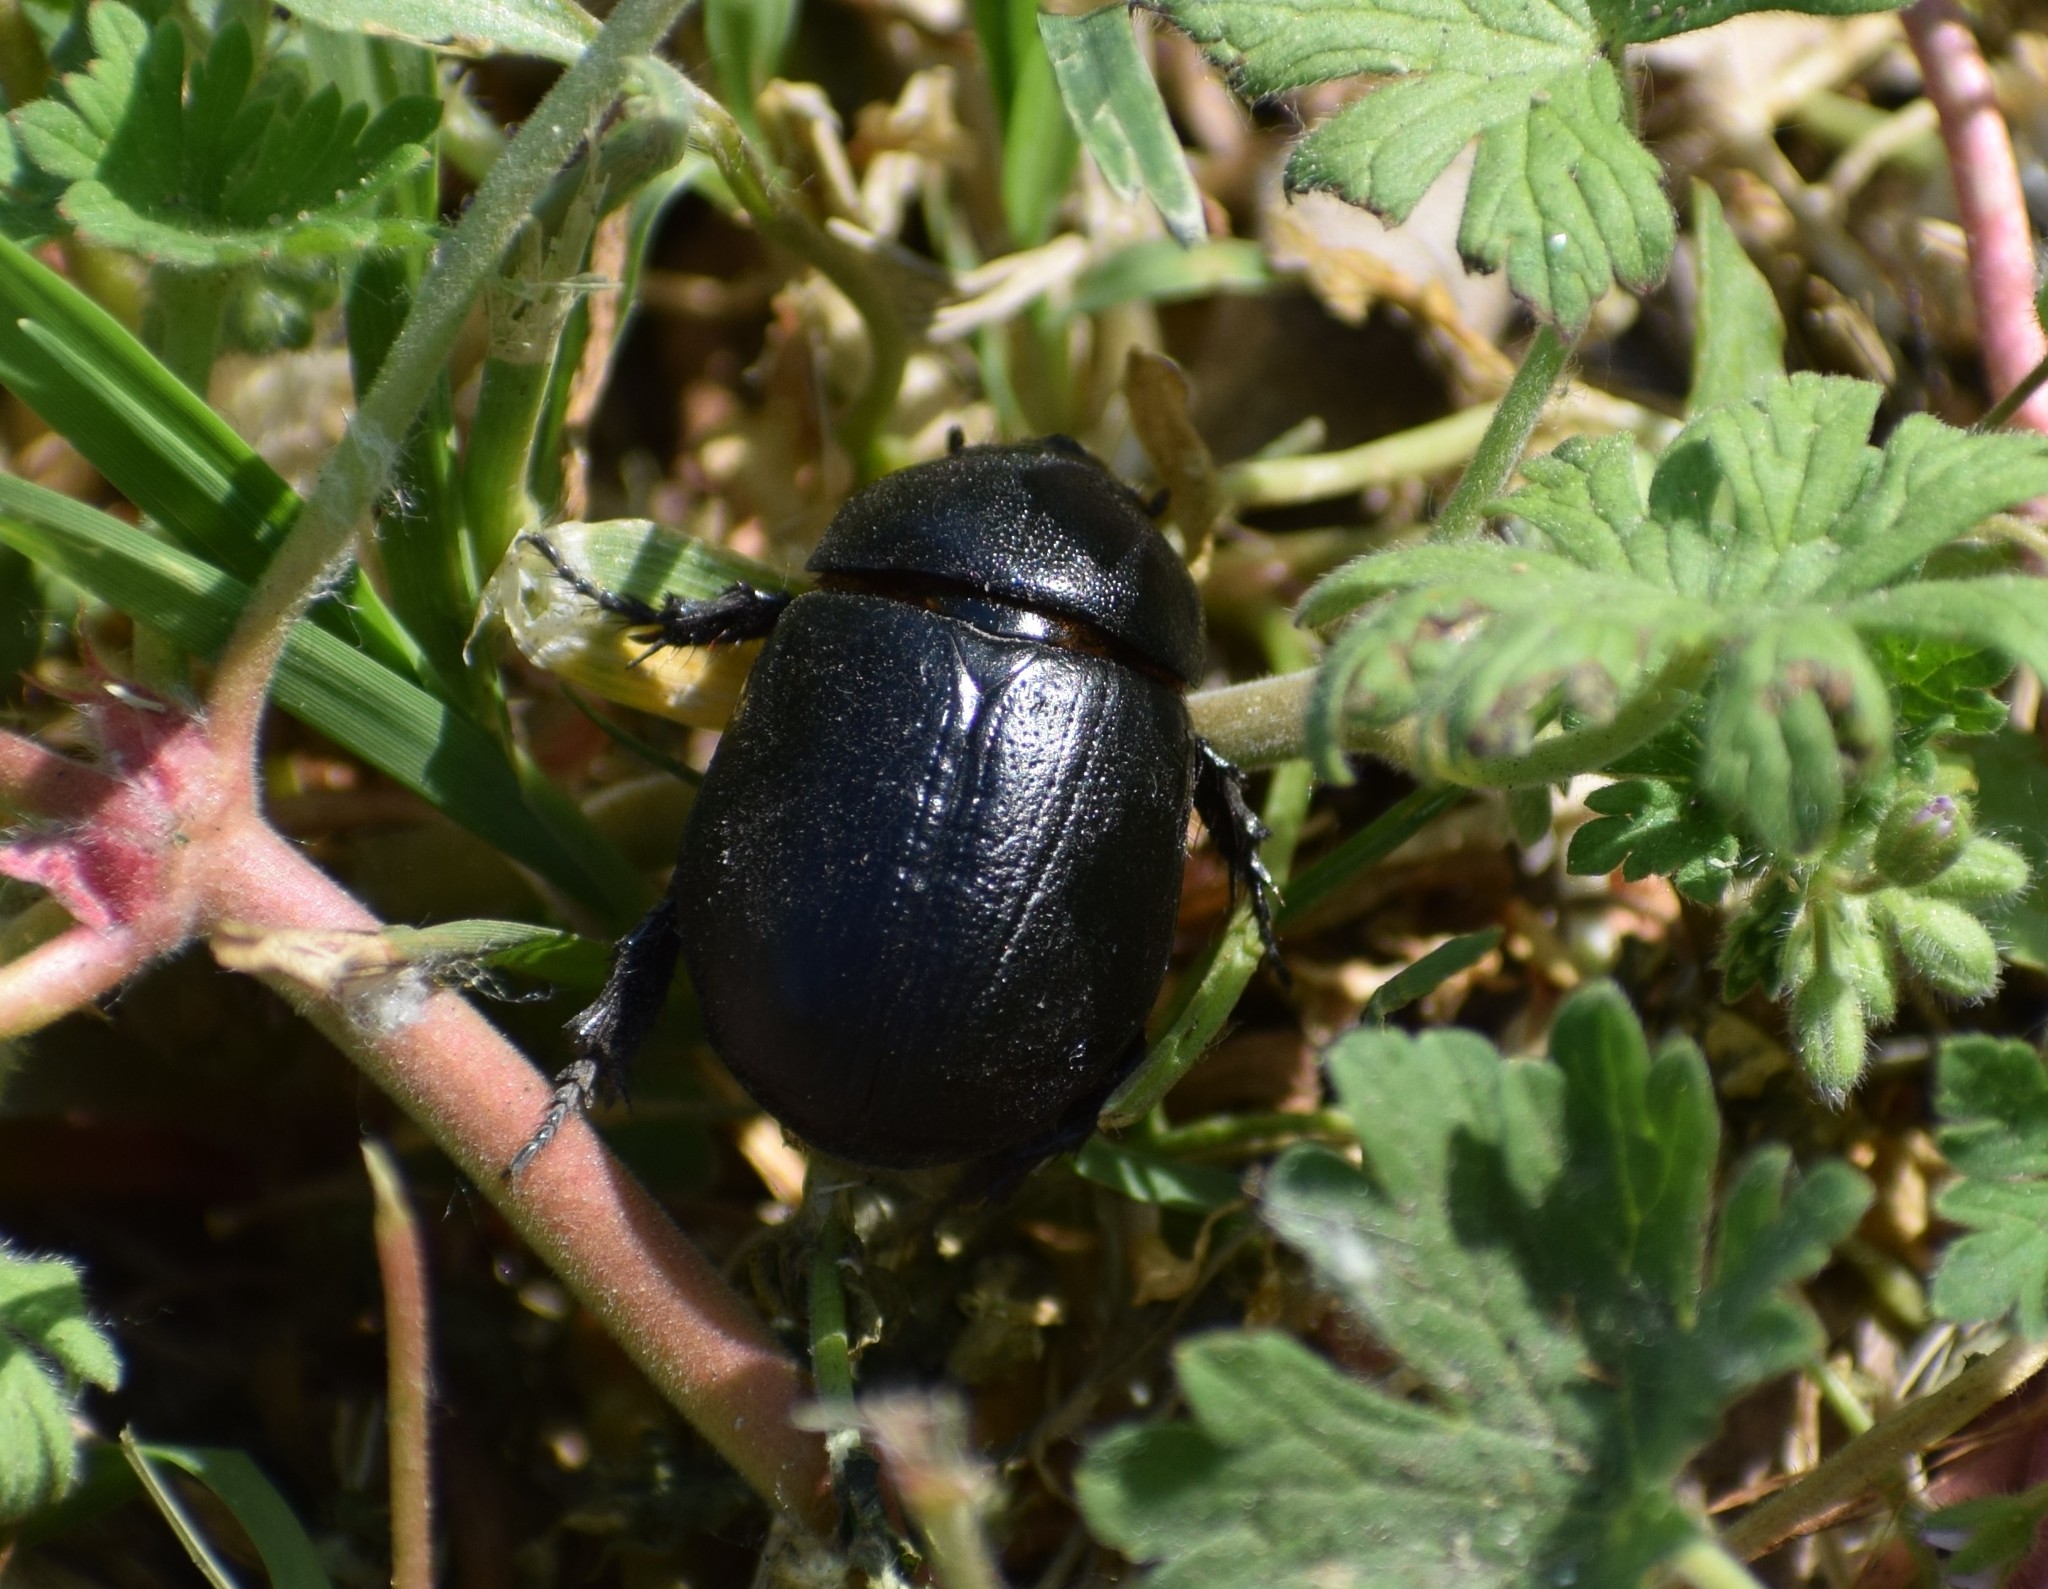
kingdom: Animalia
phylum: Arthropoda
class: Insecta
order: Coleoptera
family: Scarabaeidae
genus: Pentodon
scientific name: Pentodon idiota
